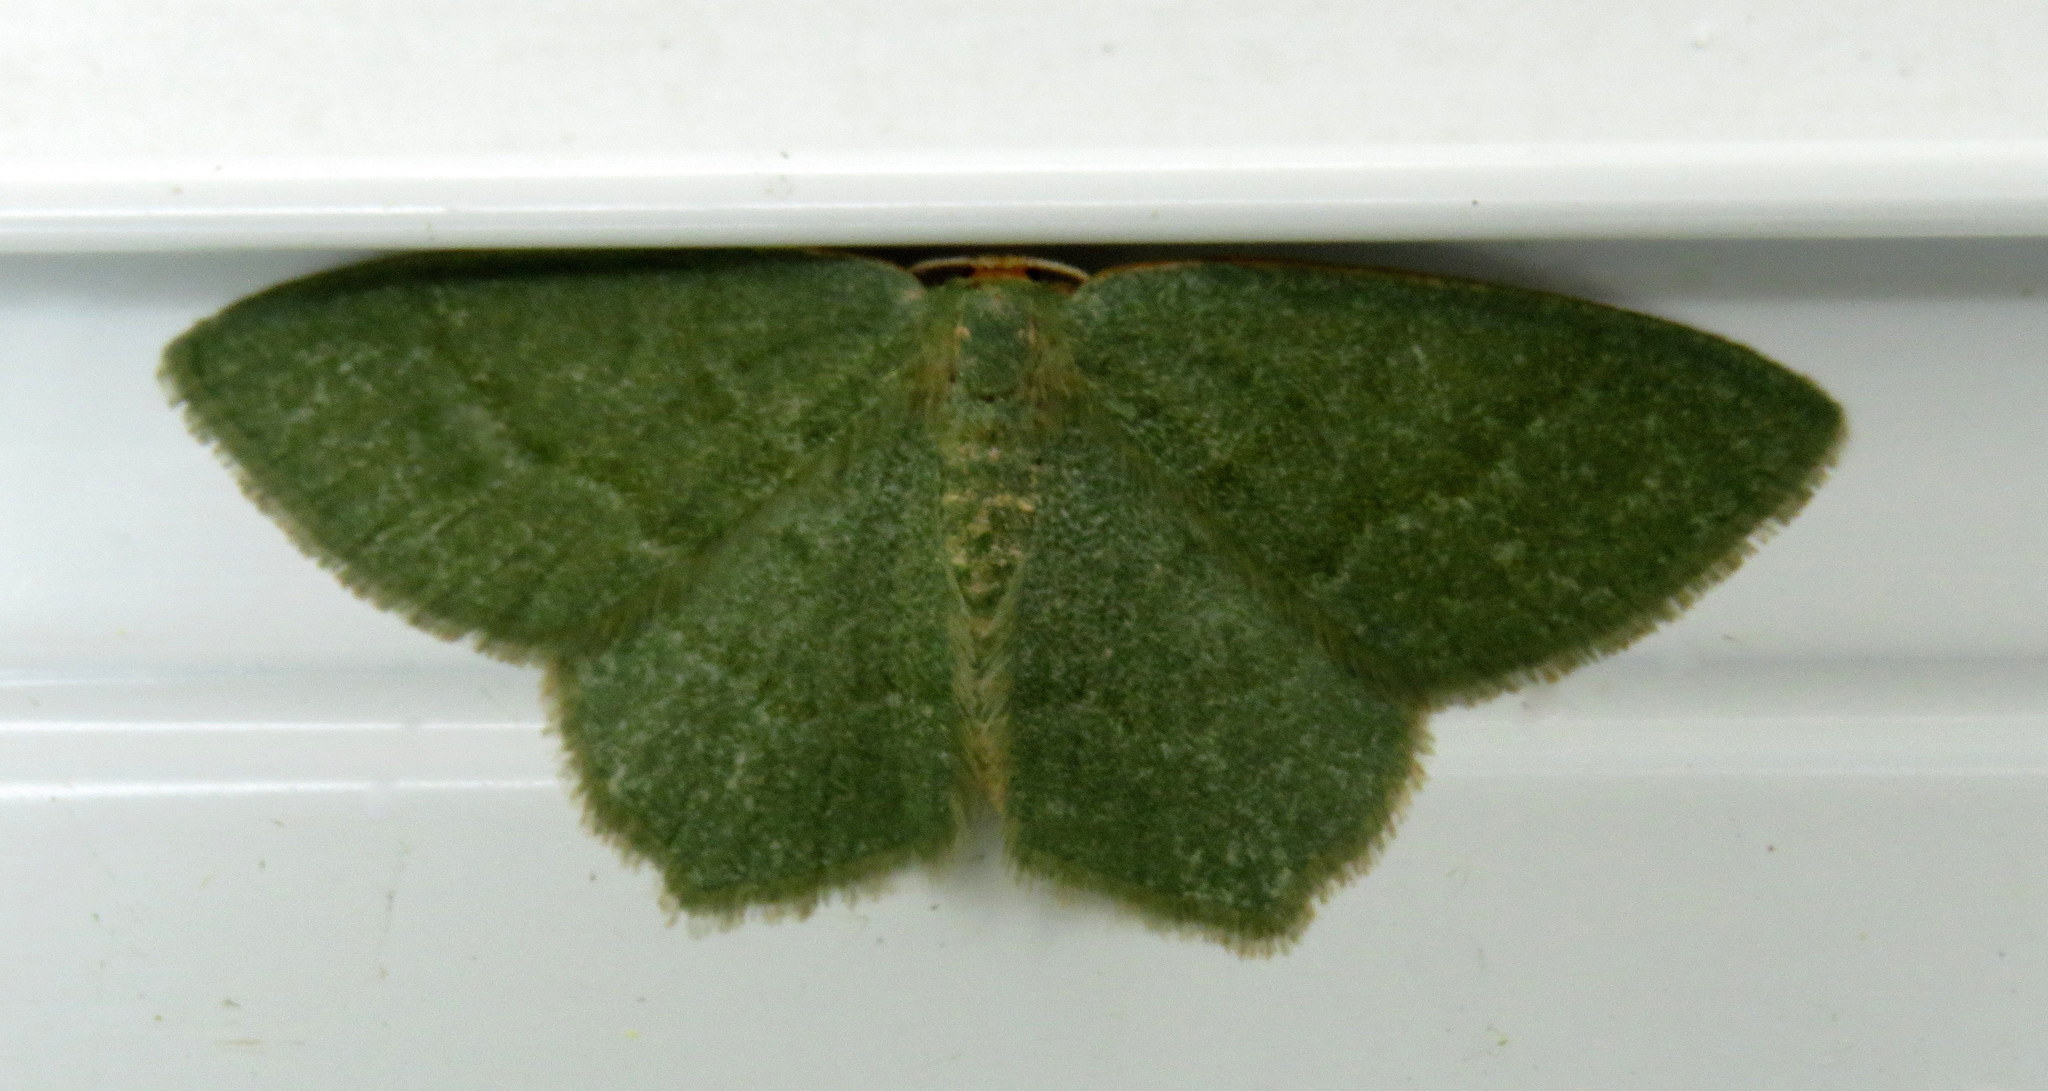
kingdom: Animalia
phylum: Arthropoda
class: Insecta
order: Lepidoptera
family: Geometridae
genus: Thalera
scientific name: Thalera pistasciaria
